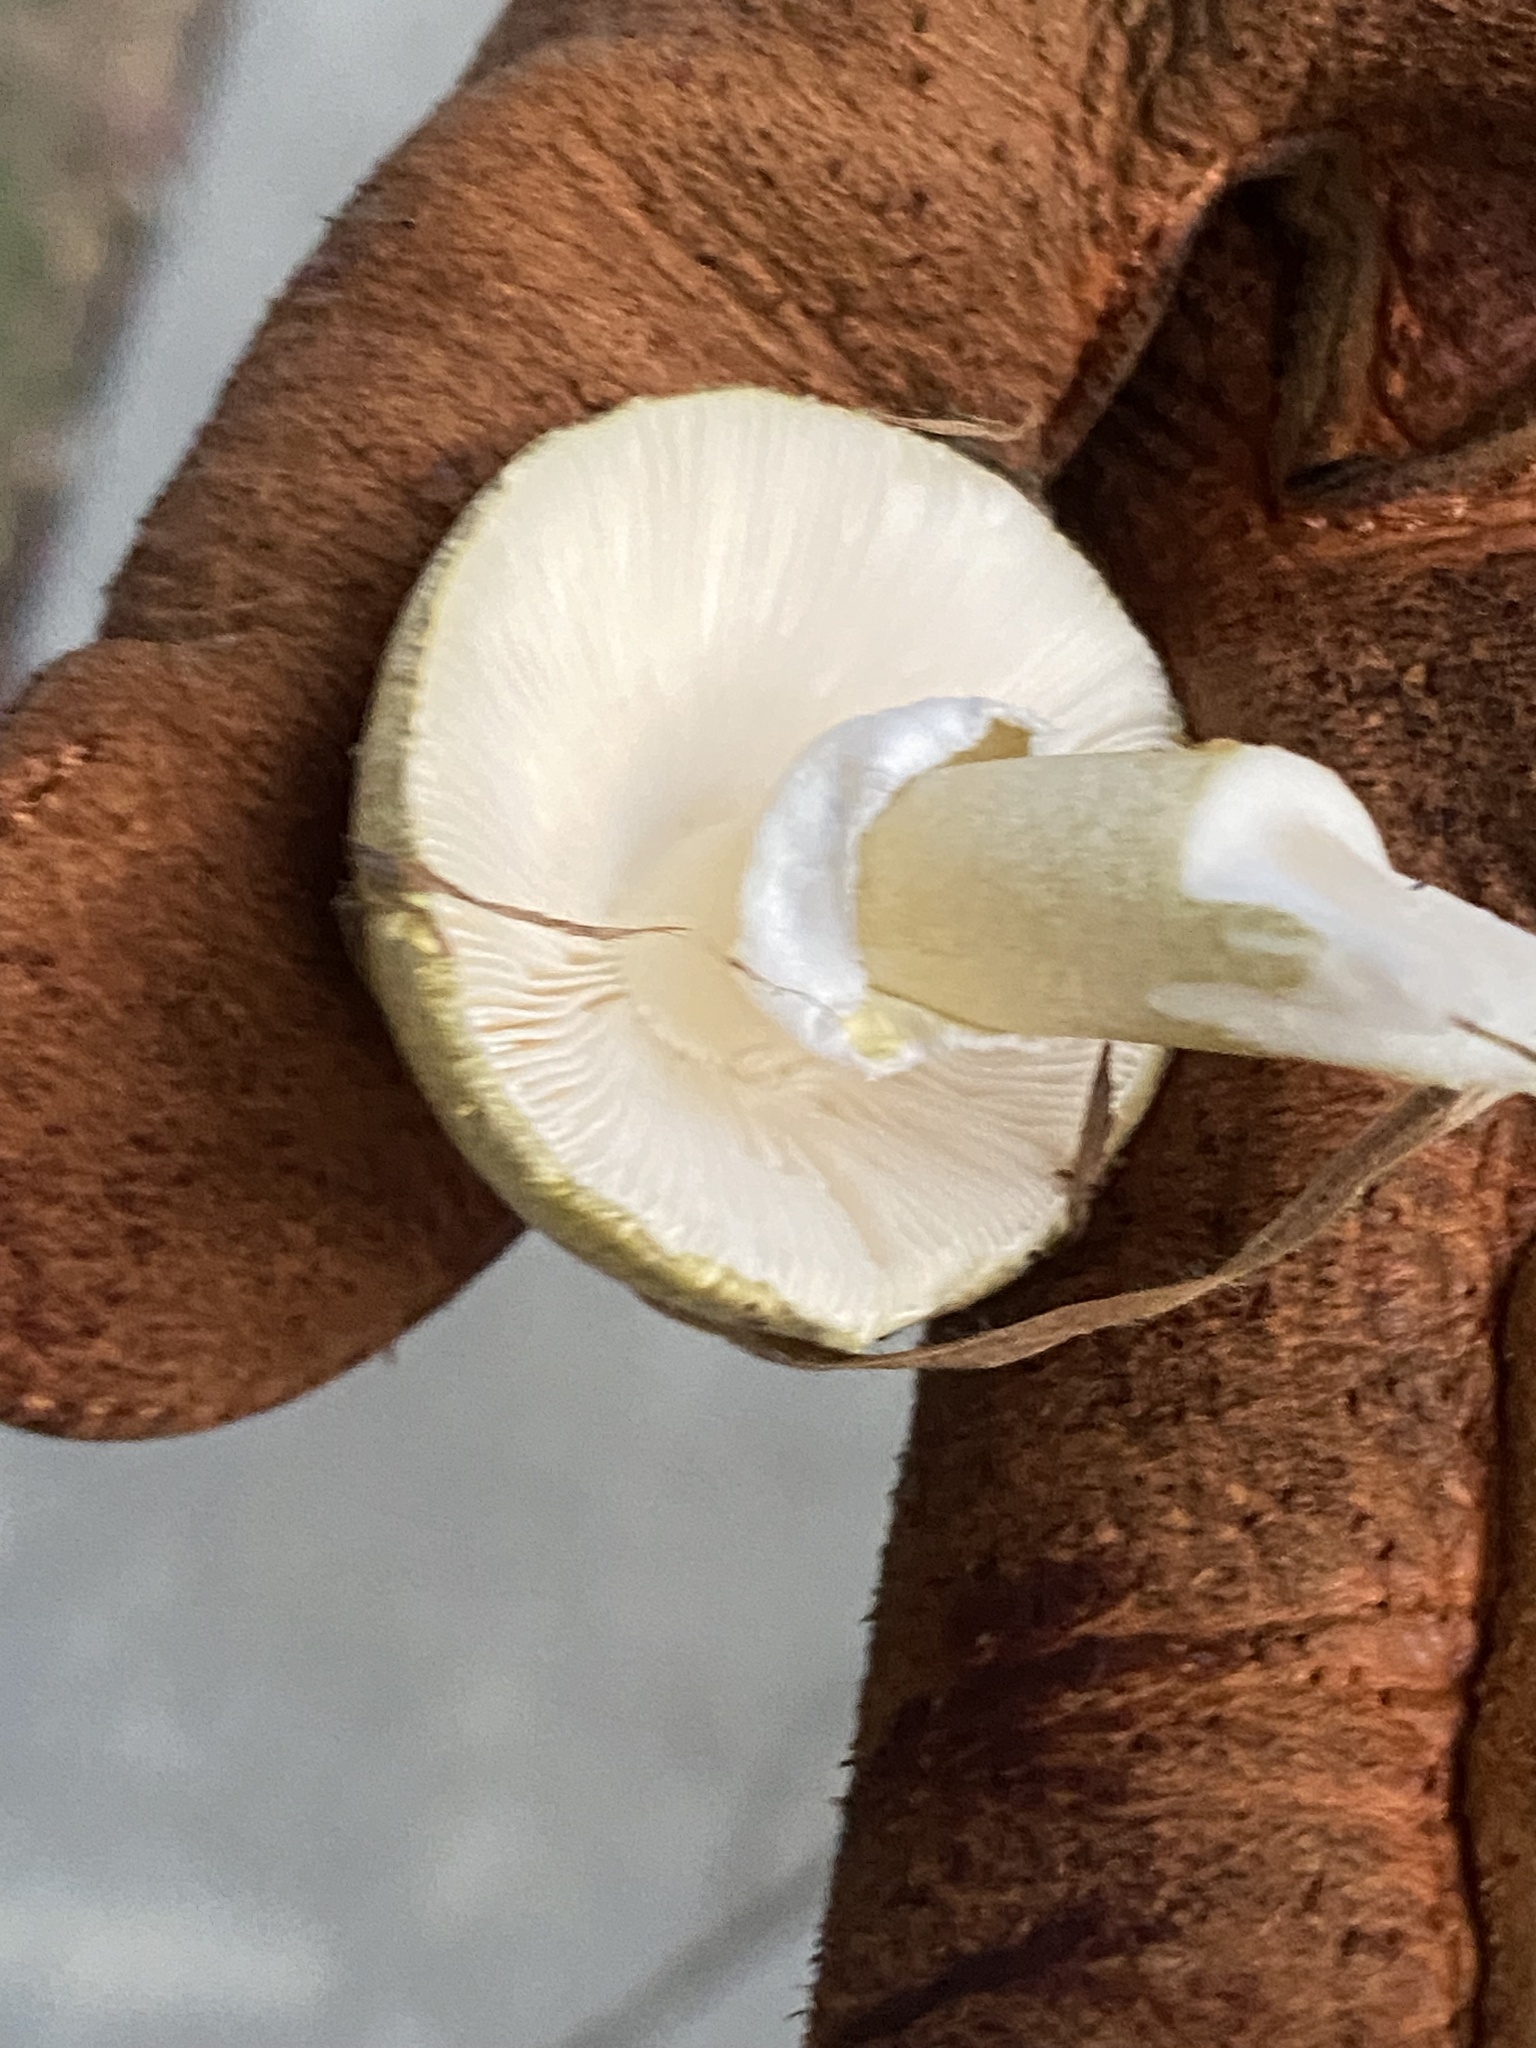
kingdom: Fungi
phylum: Basidiomycota
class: Agaricomycetes
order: Agaricales
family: Amanitaceae
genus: Amanita
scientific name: Amanita phalloides
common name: Death cap
